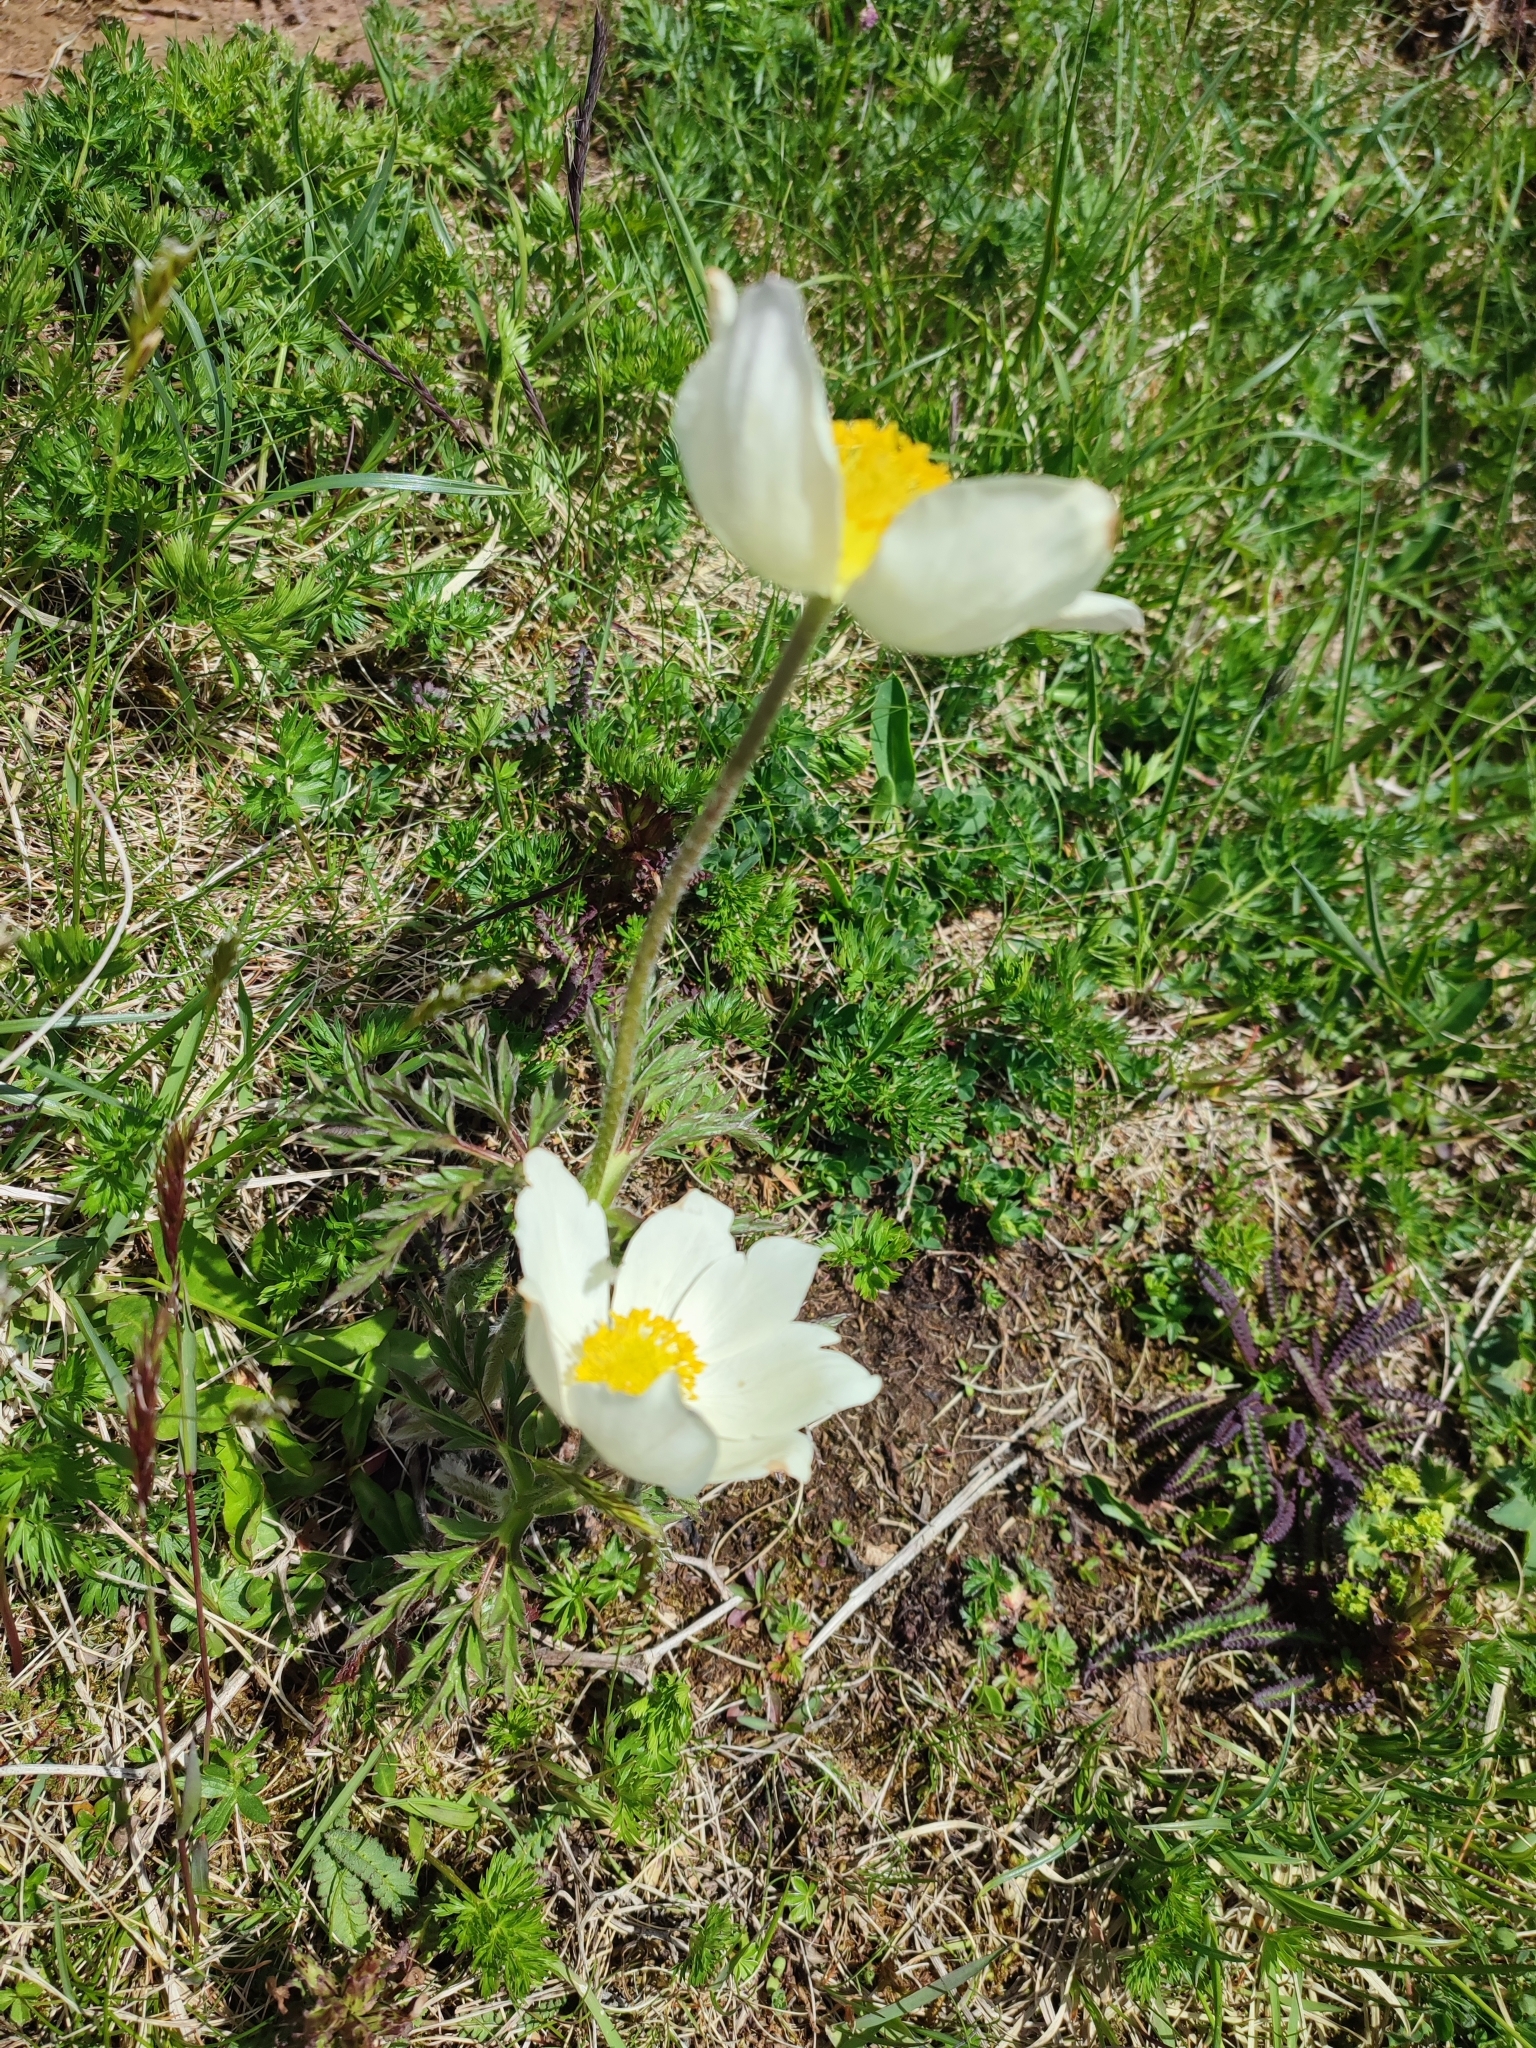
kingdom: Plantae
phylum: Tracheophyta
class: Magnoliopsida
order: Ranunculales
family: Ranunculaceae
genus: Pulsatilla
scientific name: Pulsatilla alpina
